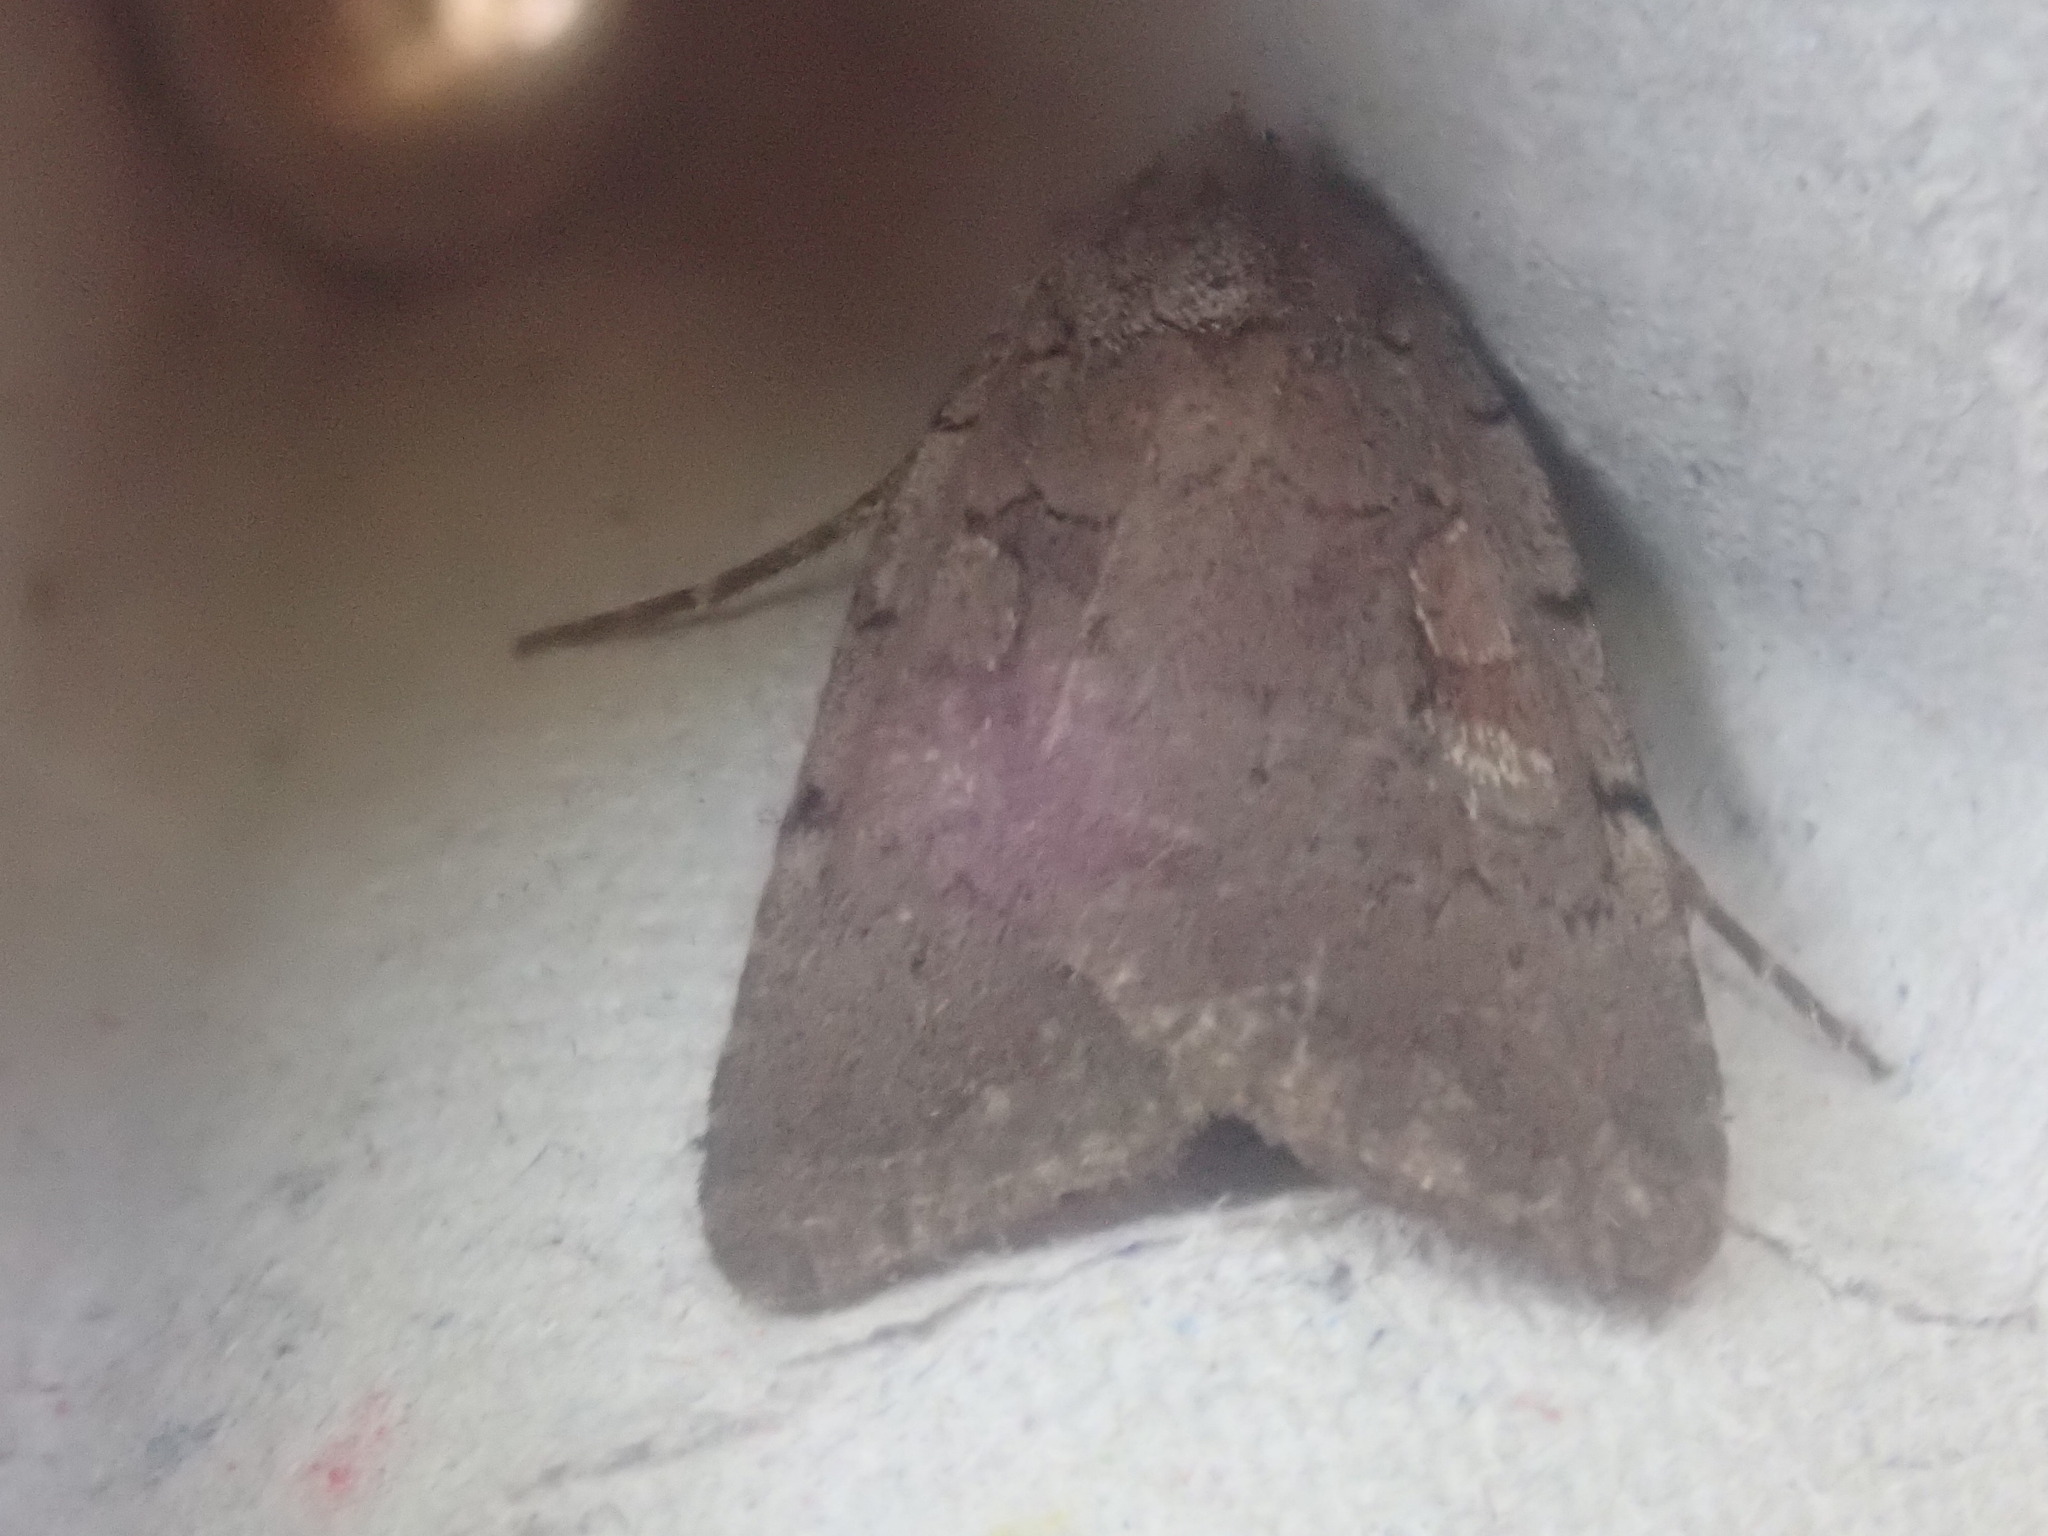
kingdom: Animalia
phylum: Arthropoda
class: Insecta
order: Lepidoptera
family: Noctuidae
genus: Xestia
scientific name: Xestia dilucida
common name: Dull reddish dart
